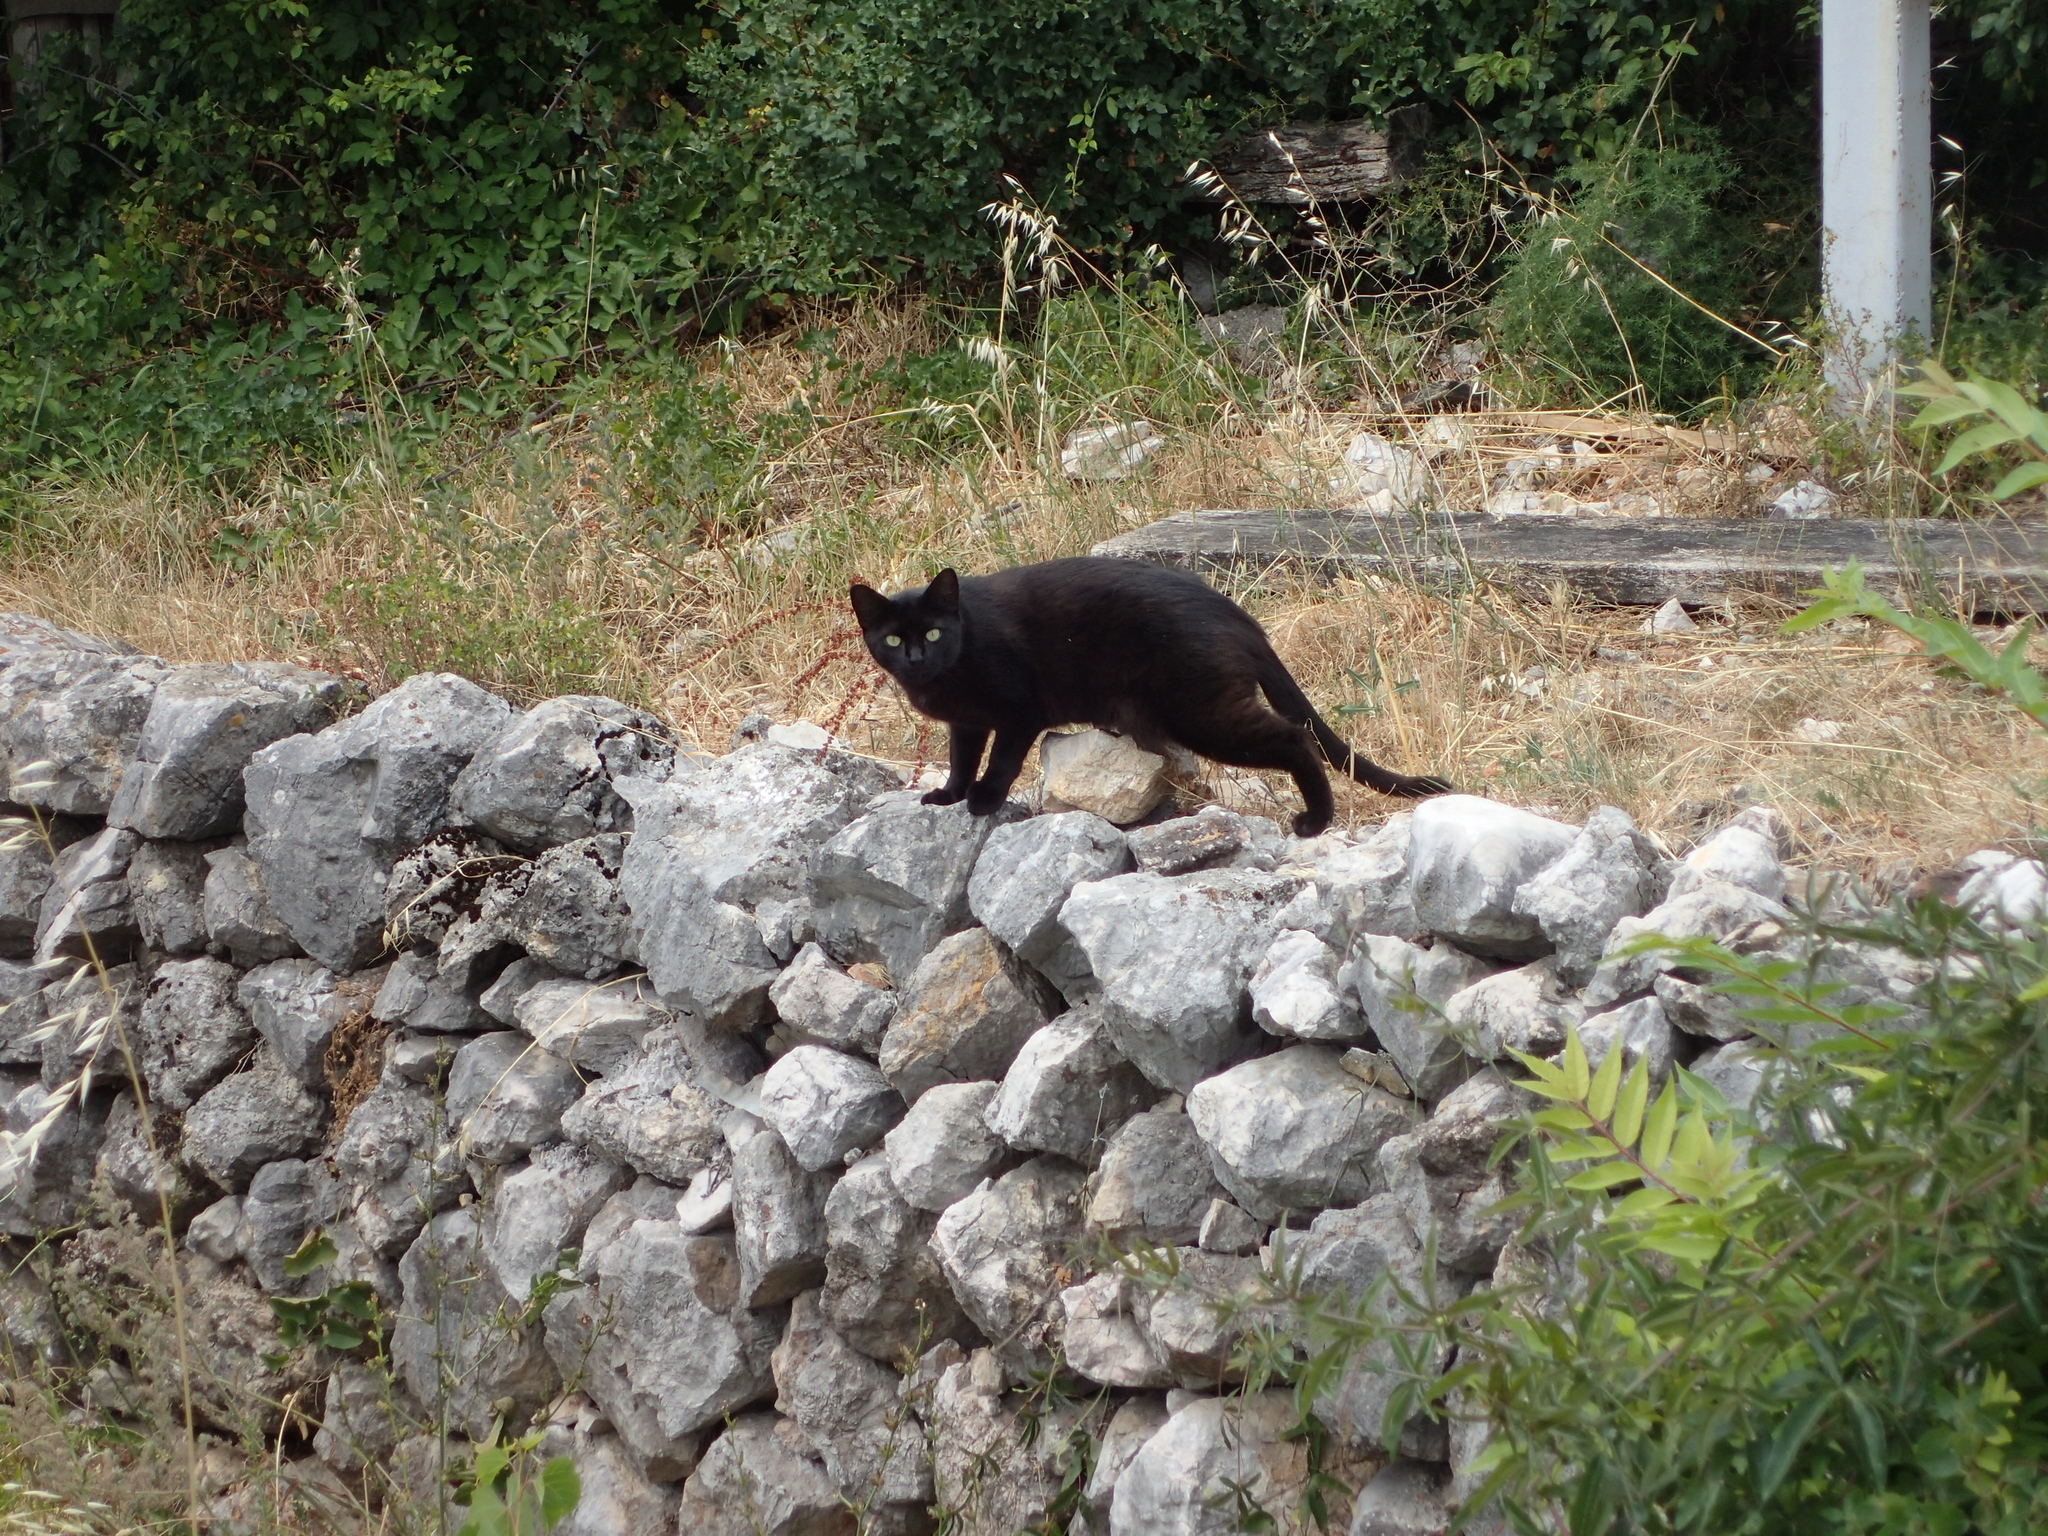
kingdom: Animalia
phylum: Chordata
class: Mammalia
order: Carnivora
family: Felidae
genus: Felis
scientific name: Felis catus
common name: Domestic cat
